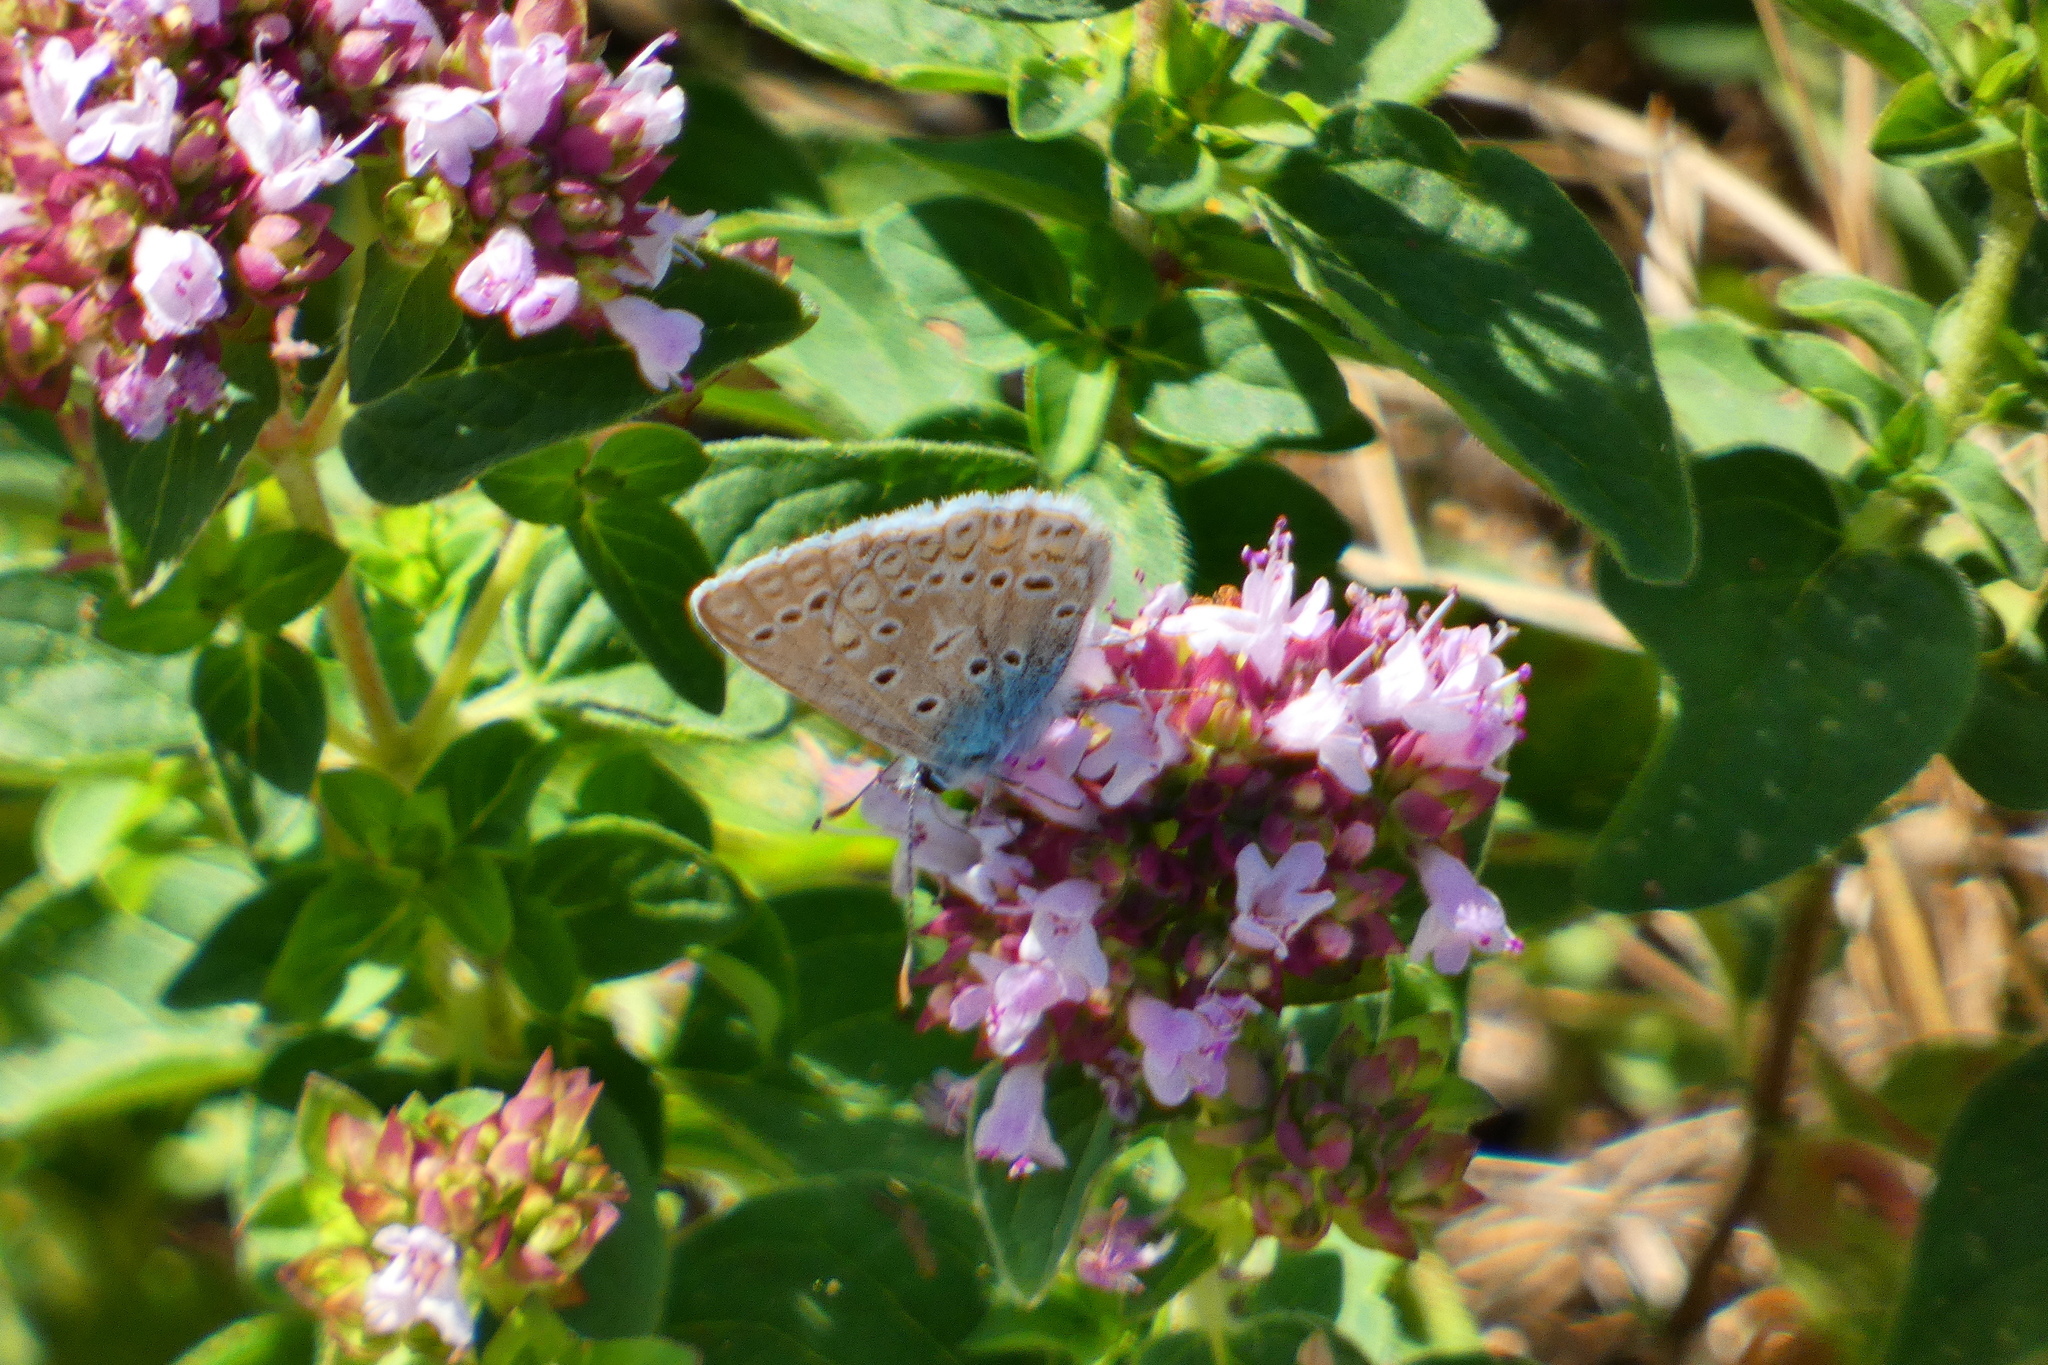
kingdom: Animalia
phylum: Arthropoda
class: Insecta
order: Lepidoptera
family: Lycaenidae
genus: Polyommatus
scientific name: Polyommatus icarus
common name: Common blue
